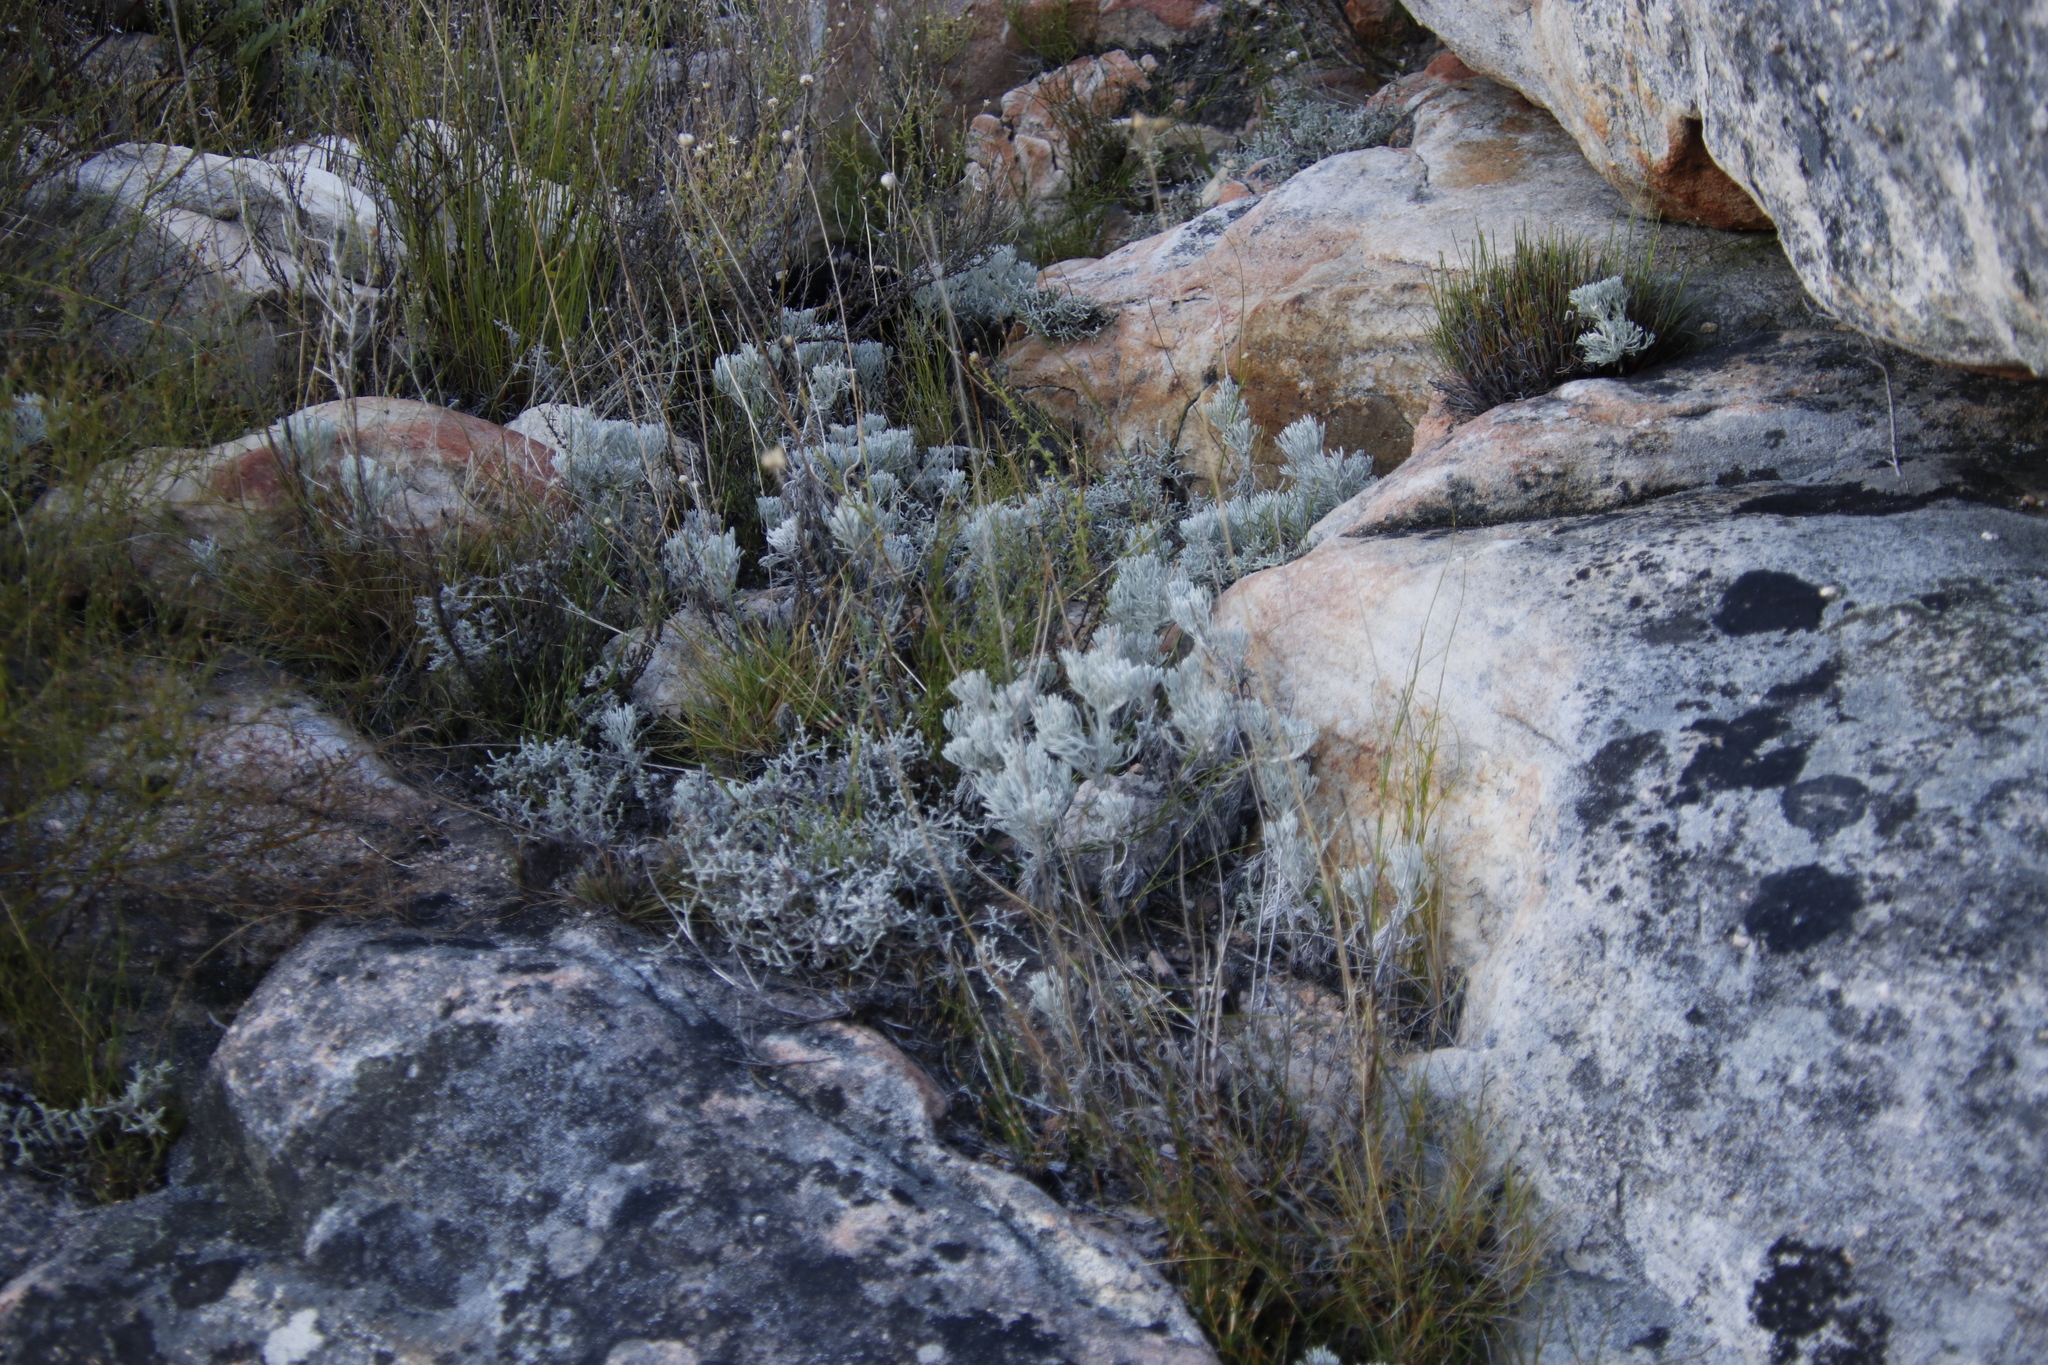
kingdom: Plantae
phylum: Tracheophyta
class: Magnoliopsida
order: Asterales
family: Asteraceae
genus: Ursinia
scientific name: Ursinia sericea
